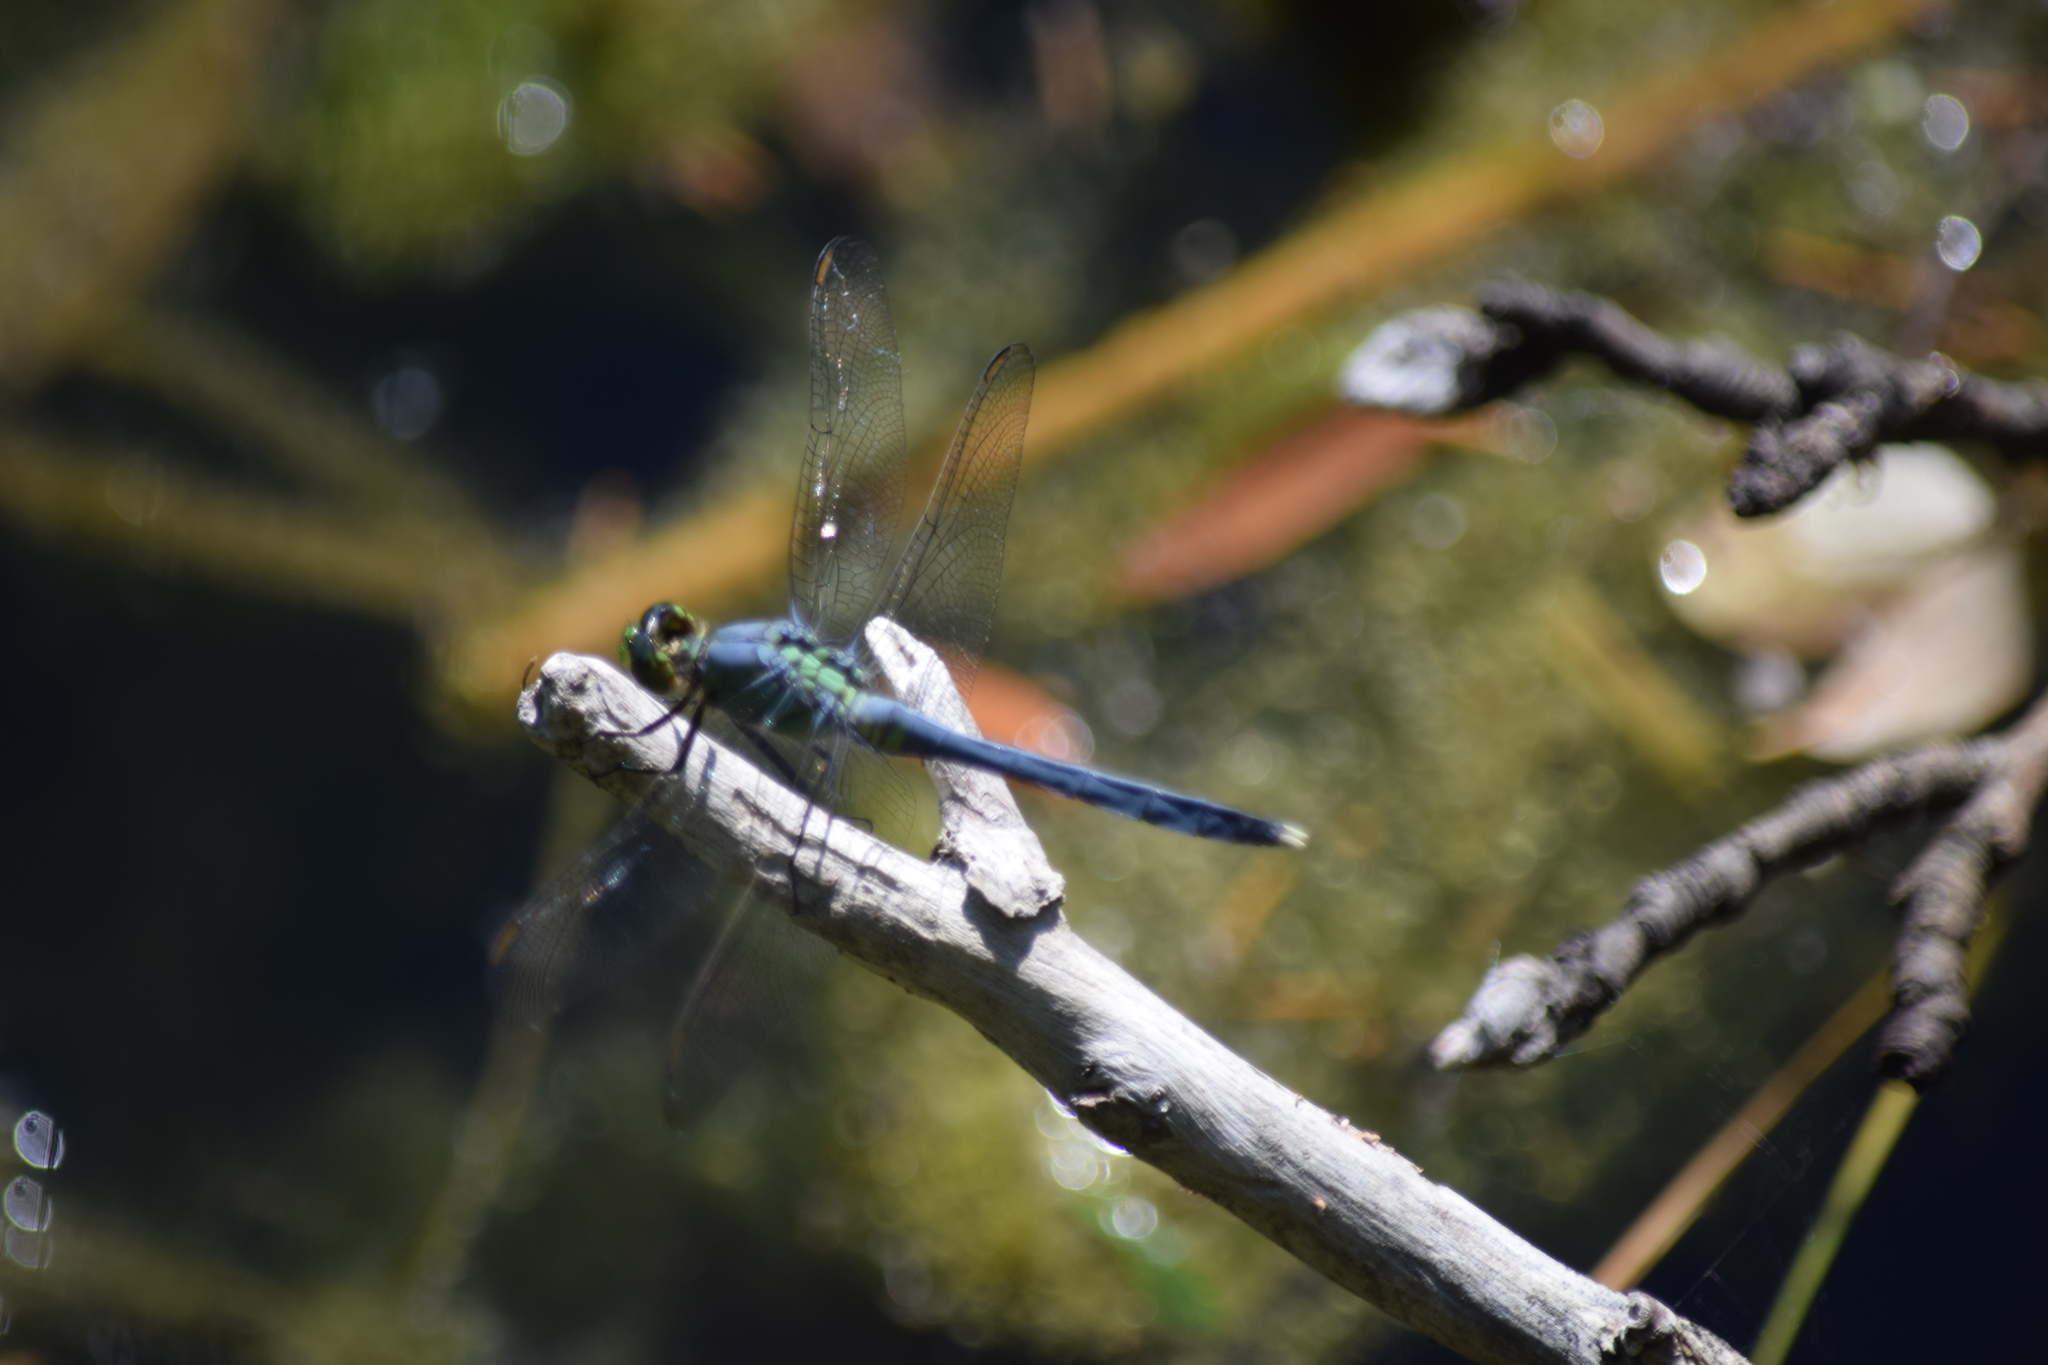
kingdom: Animalia
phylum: Arthropoda
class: Insecta
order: Odonata
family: Libellulidae
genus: Erythemis
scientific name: Erythemis simplicicollis
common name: Eastern pondhawk
